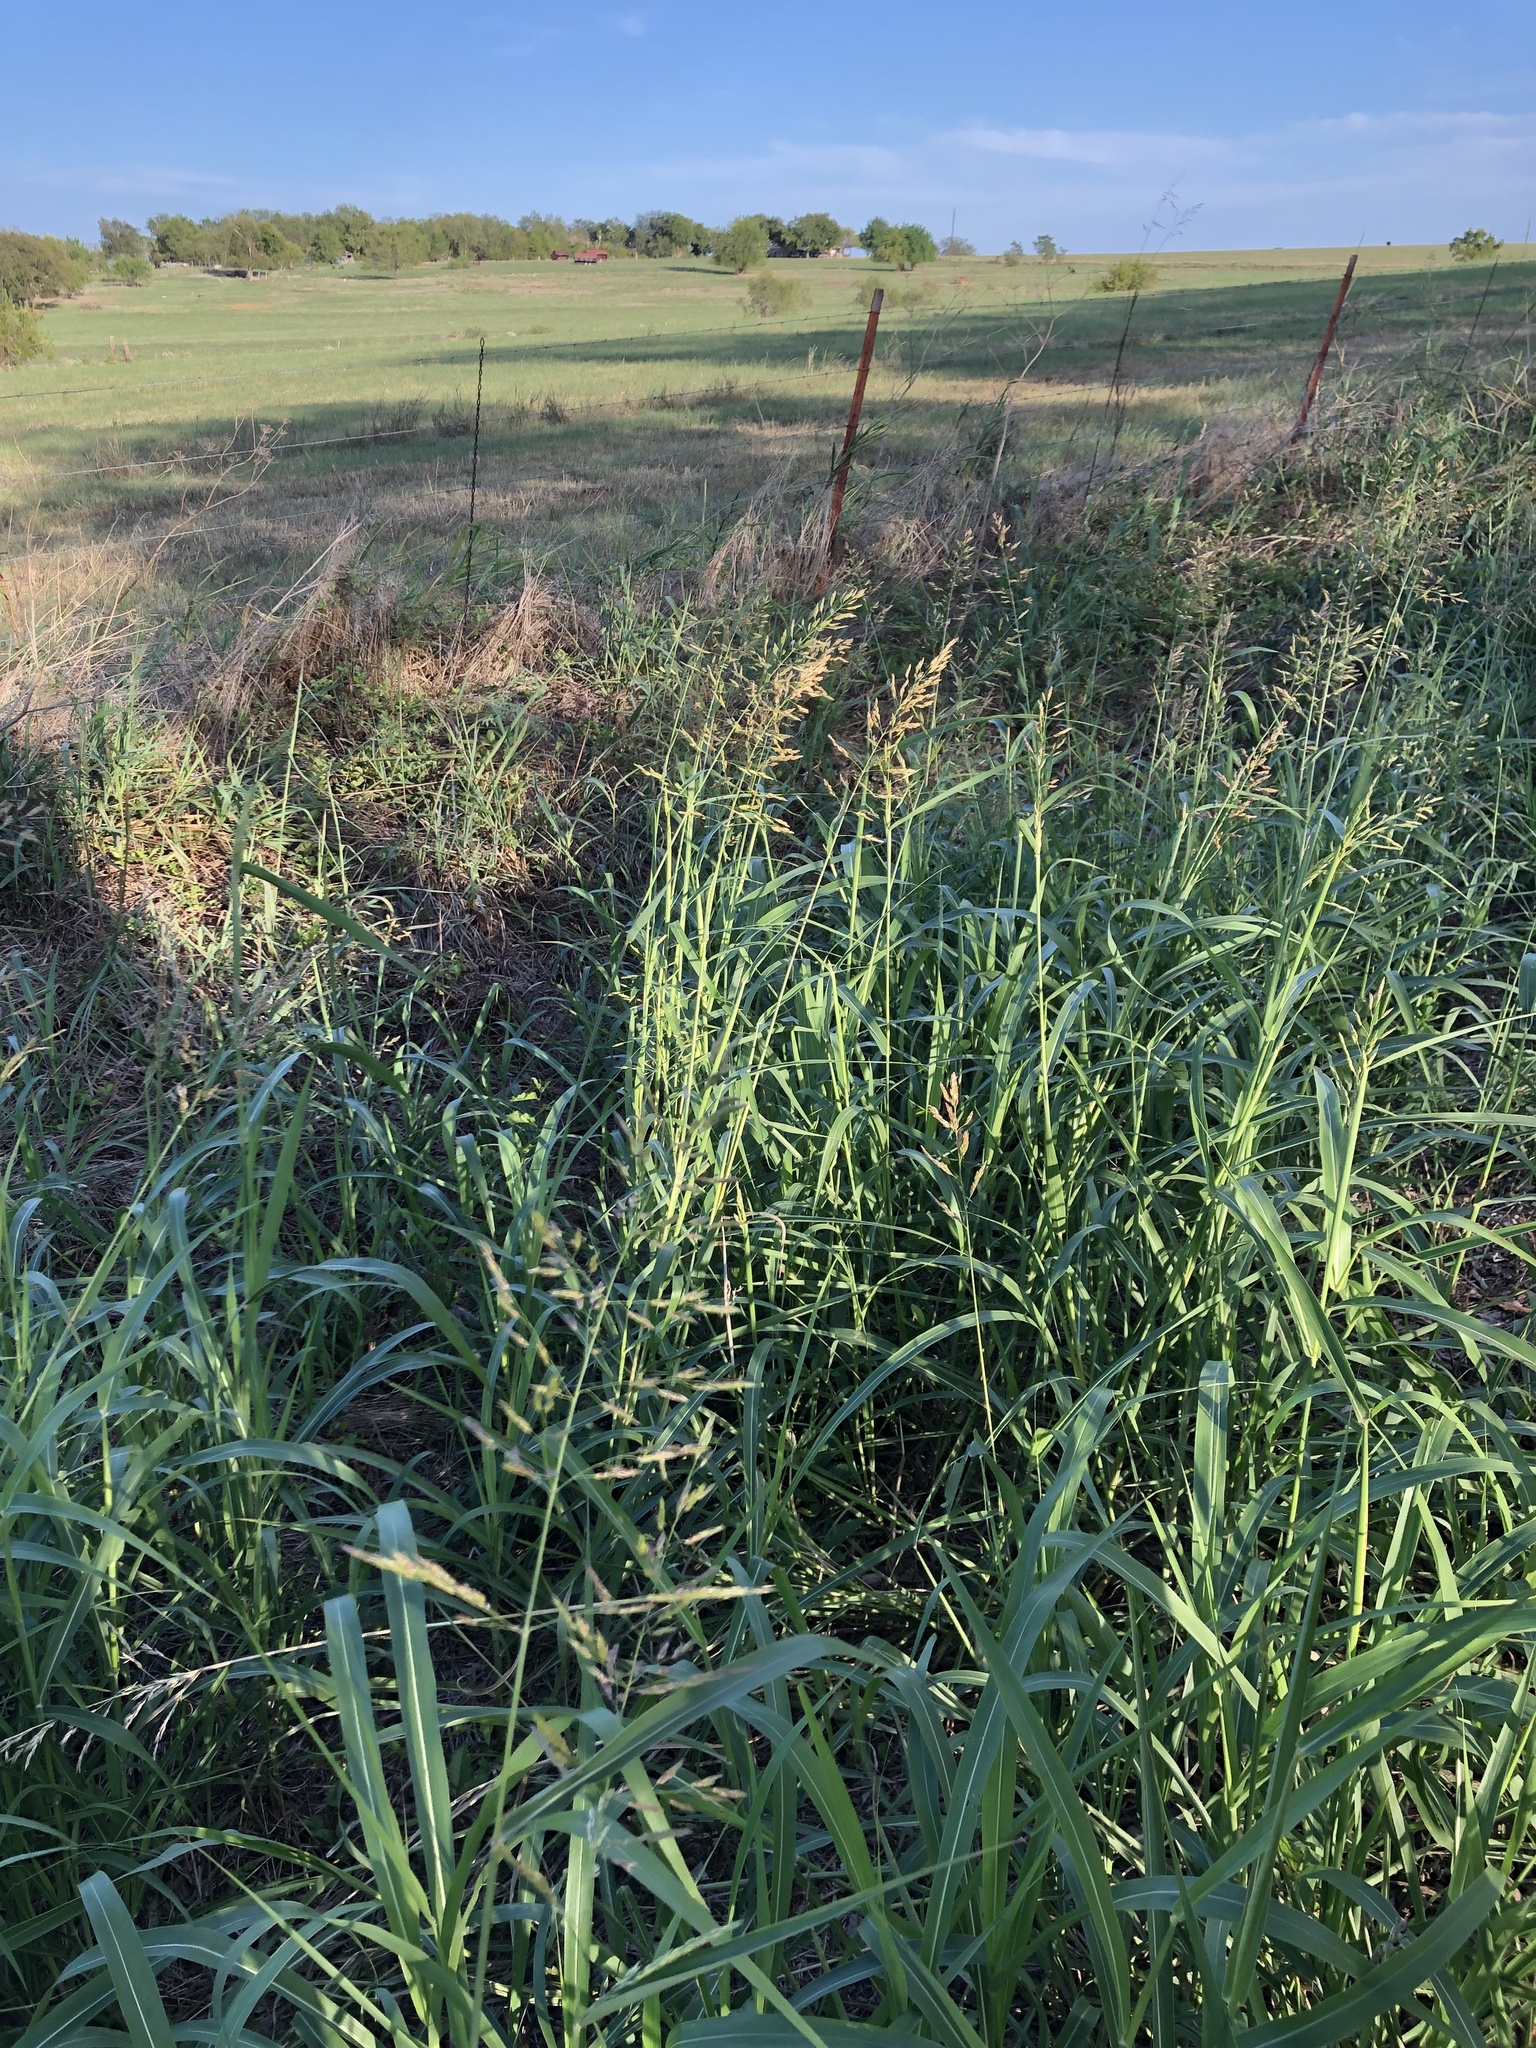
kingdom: Plantae
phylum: Tracheophyta
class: Liliopsida
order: Poales
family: Poaceae
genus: Sorghum
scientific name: Sorghum halepense
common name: Johnson-grass
